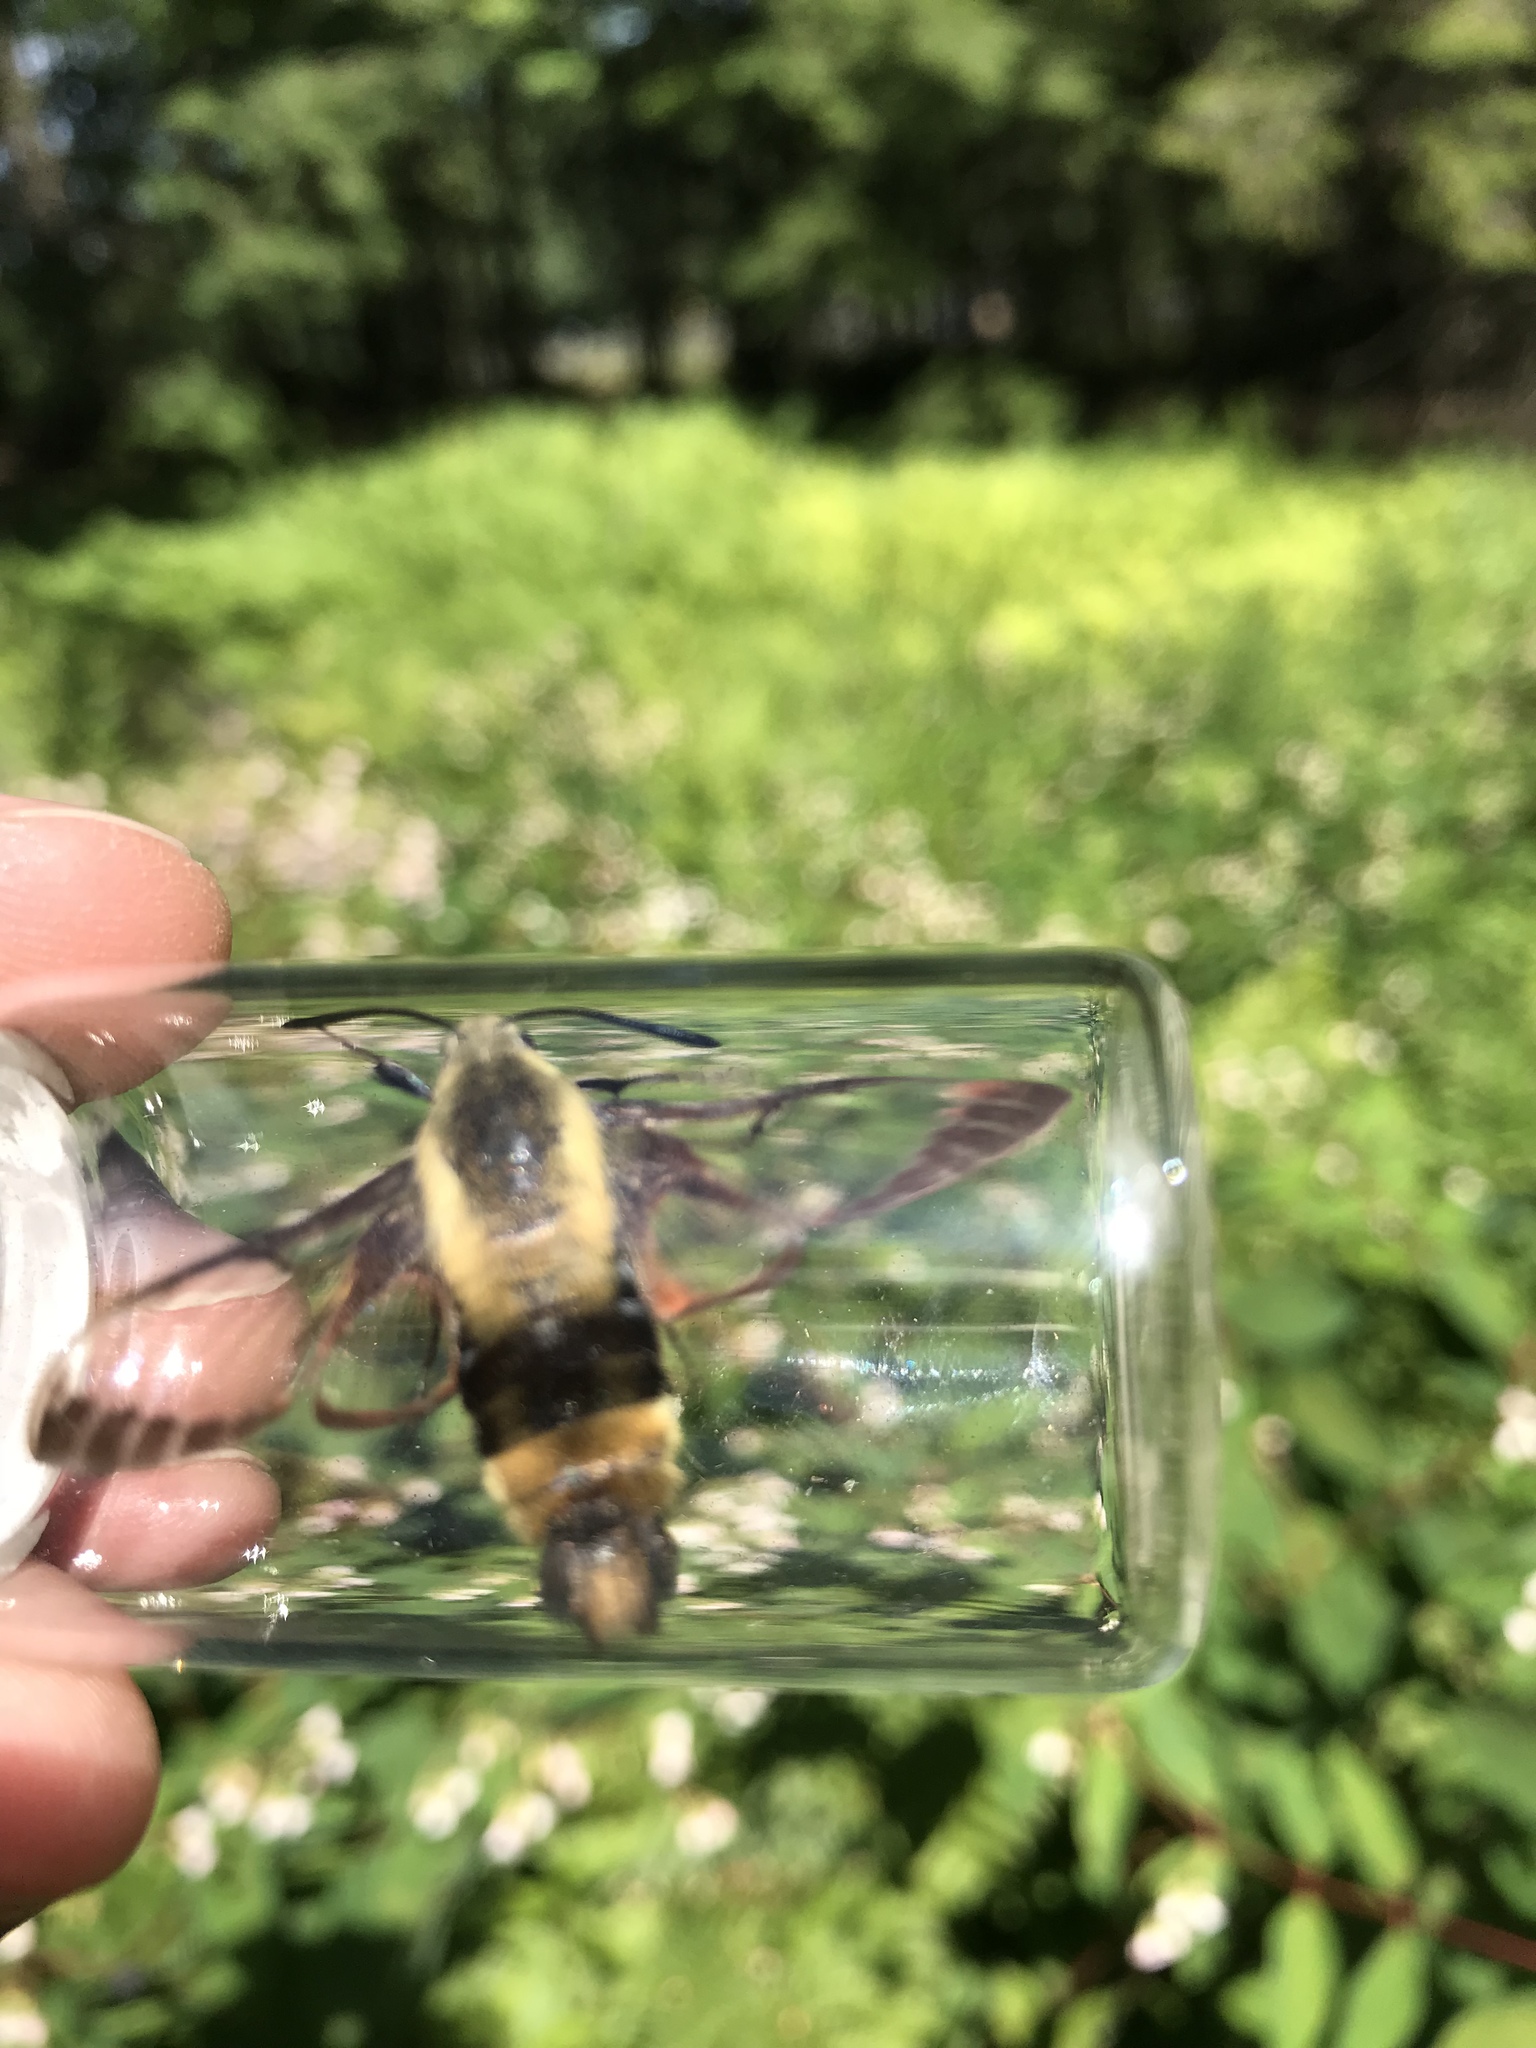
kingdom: Animalia
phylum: Arthropoda
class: Insecta
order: Lepidoptera
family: Sphingidae
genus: Hemaris
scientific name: Hemaris diffinis
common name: Bumblebee moth
